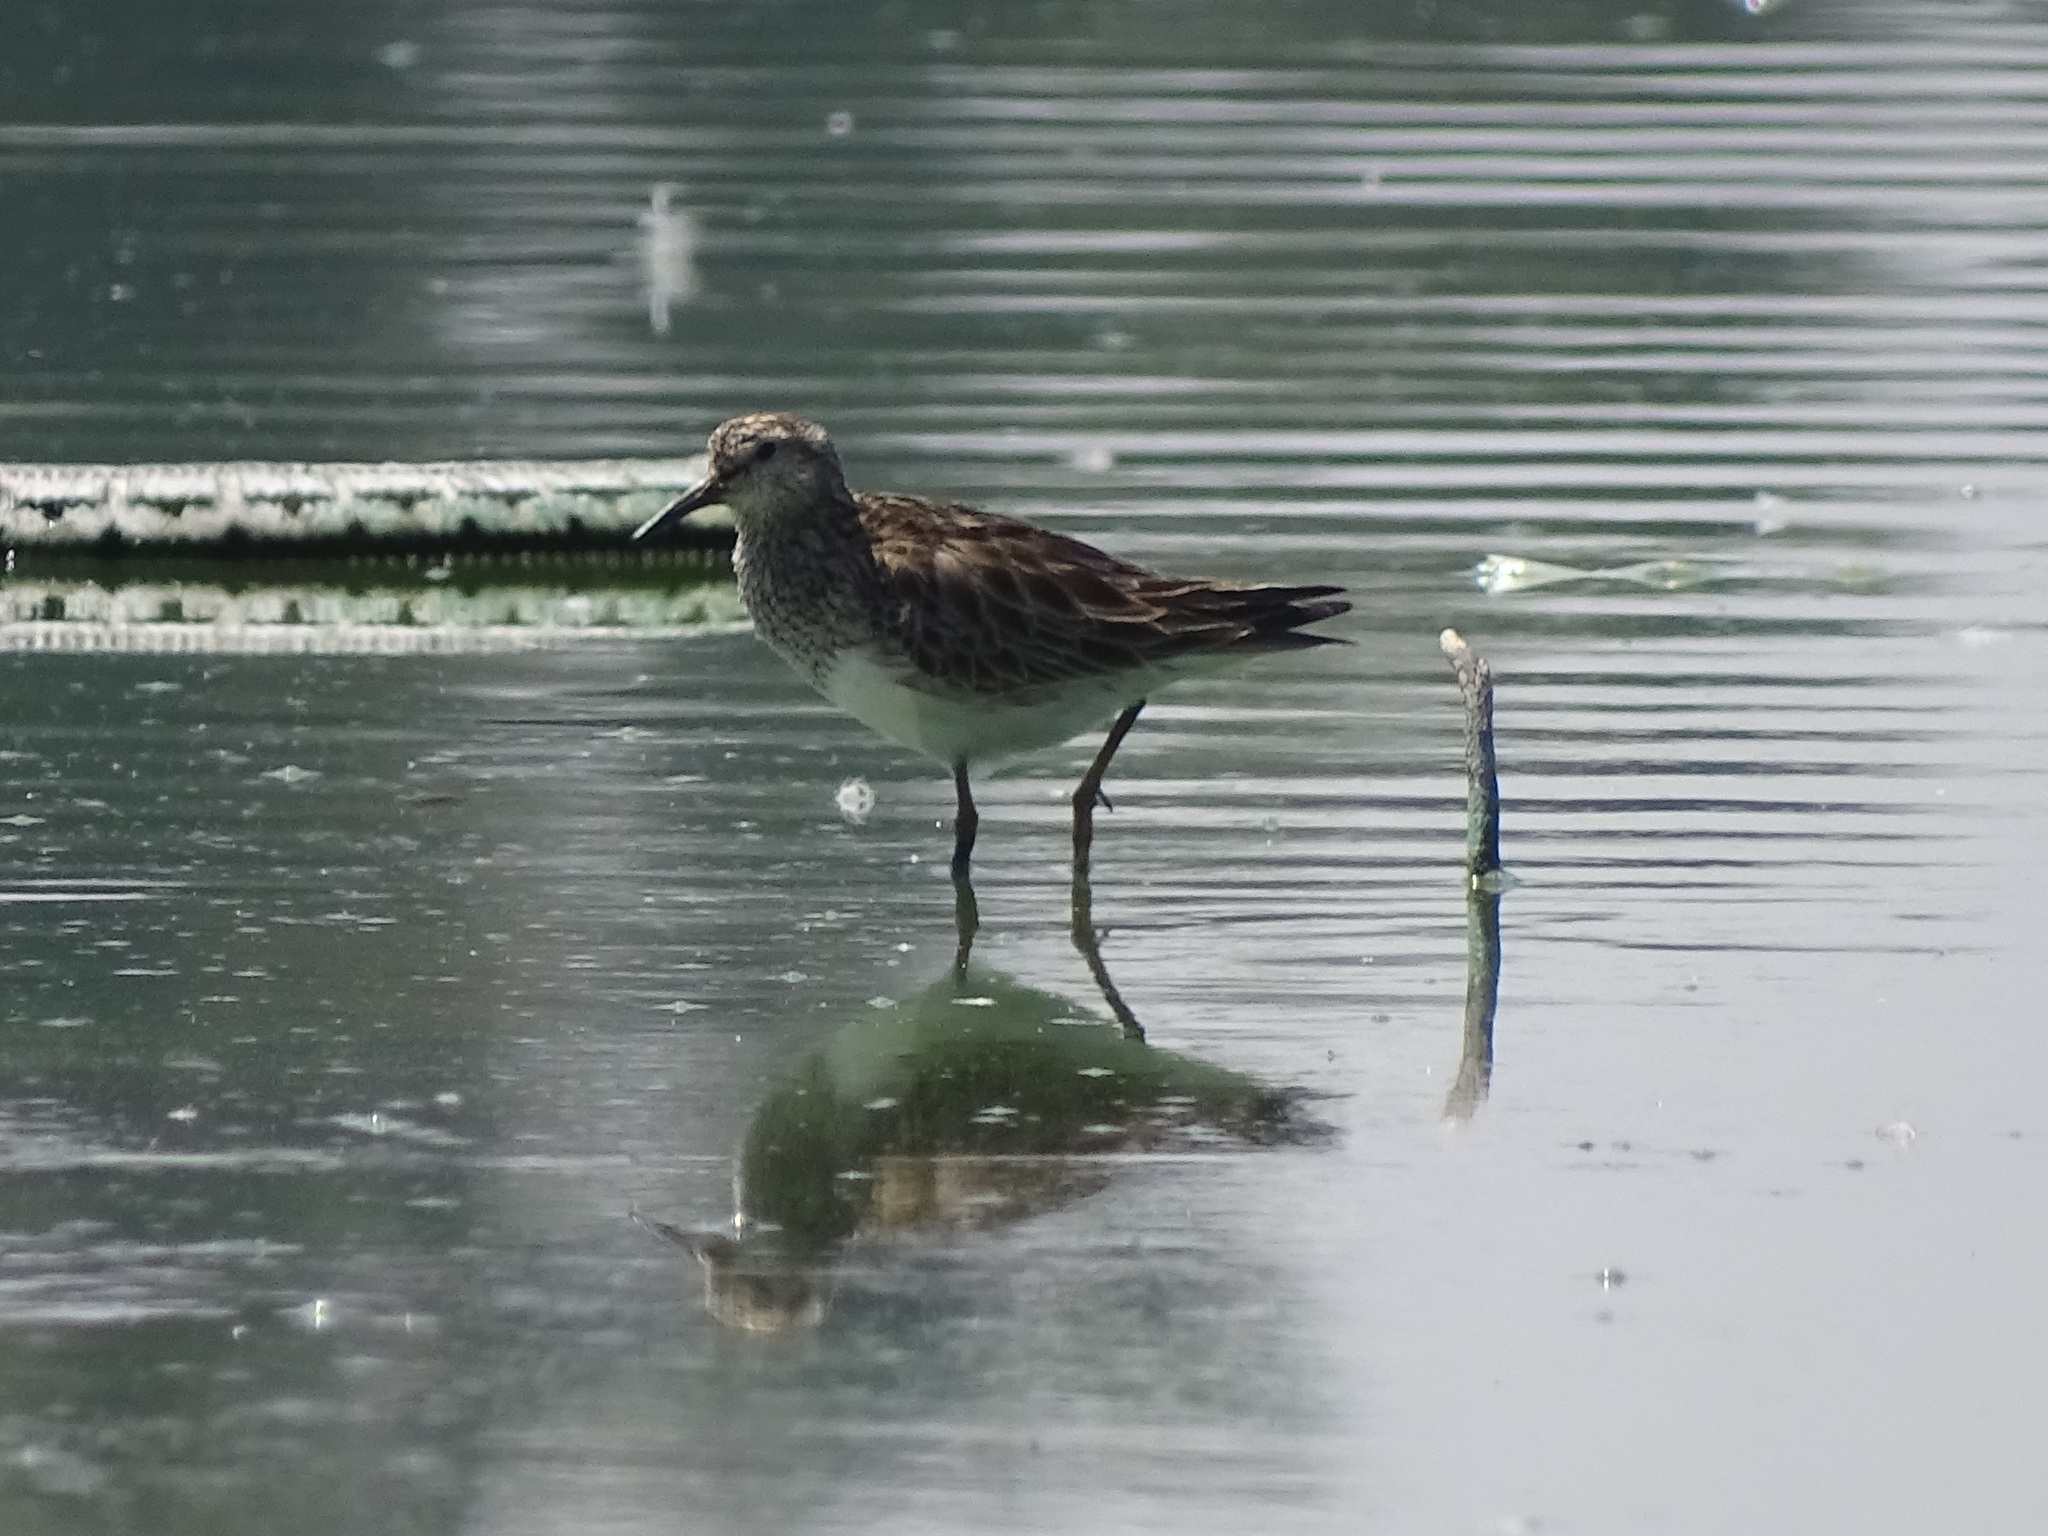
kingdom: Animalia
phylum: Chordata
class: Aves
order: Charadriiformes
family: Scolopacidae
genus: Calidris
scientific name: Calidris melanotos
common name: Pectoral sandpiper
